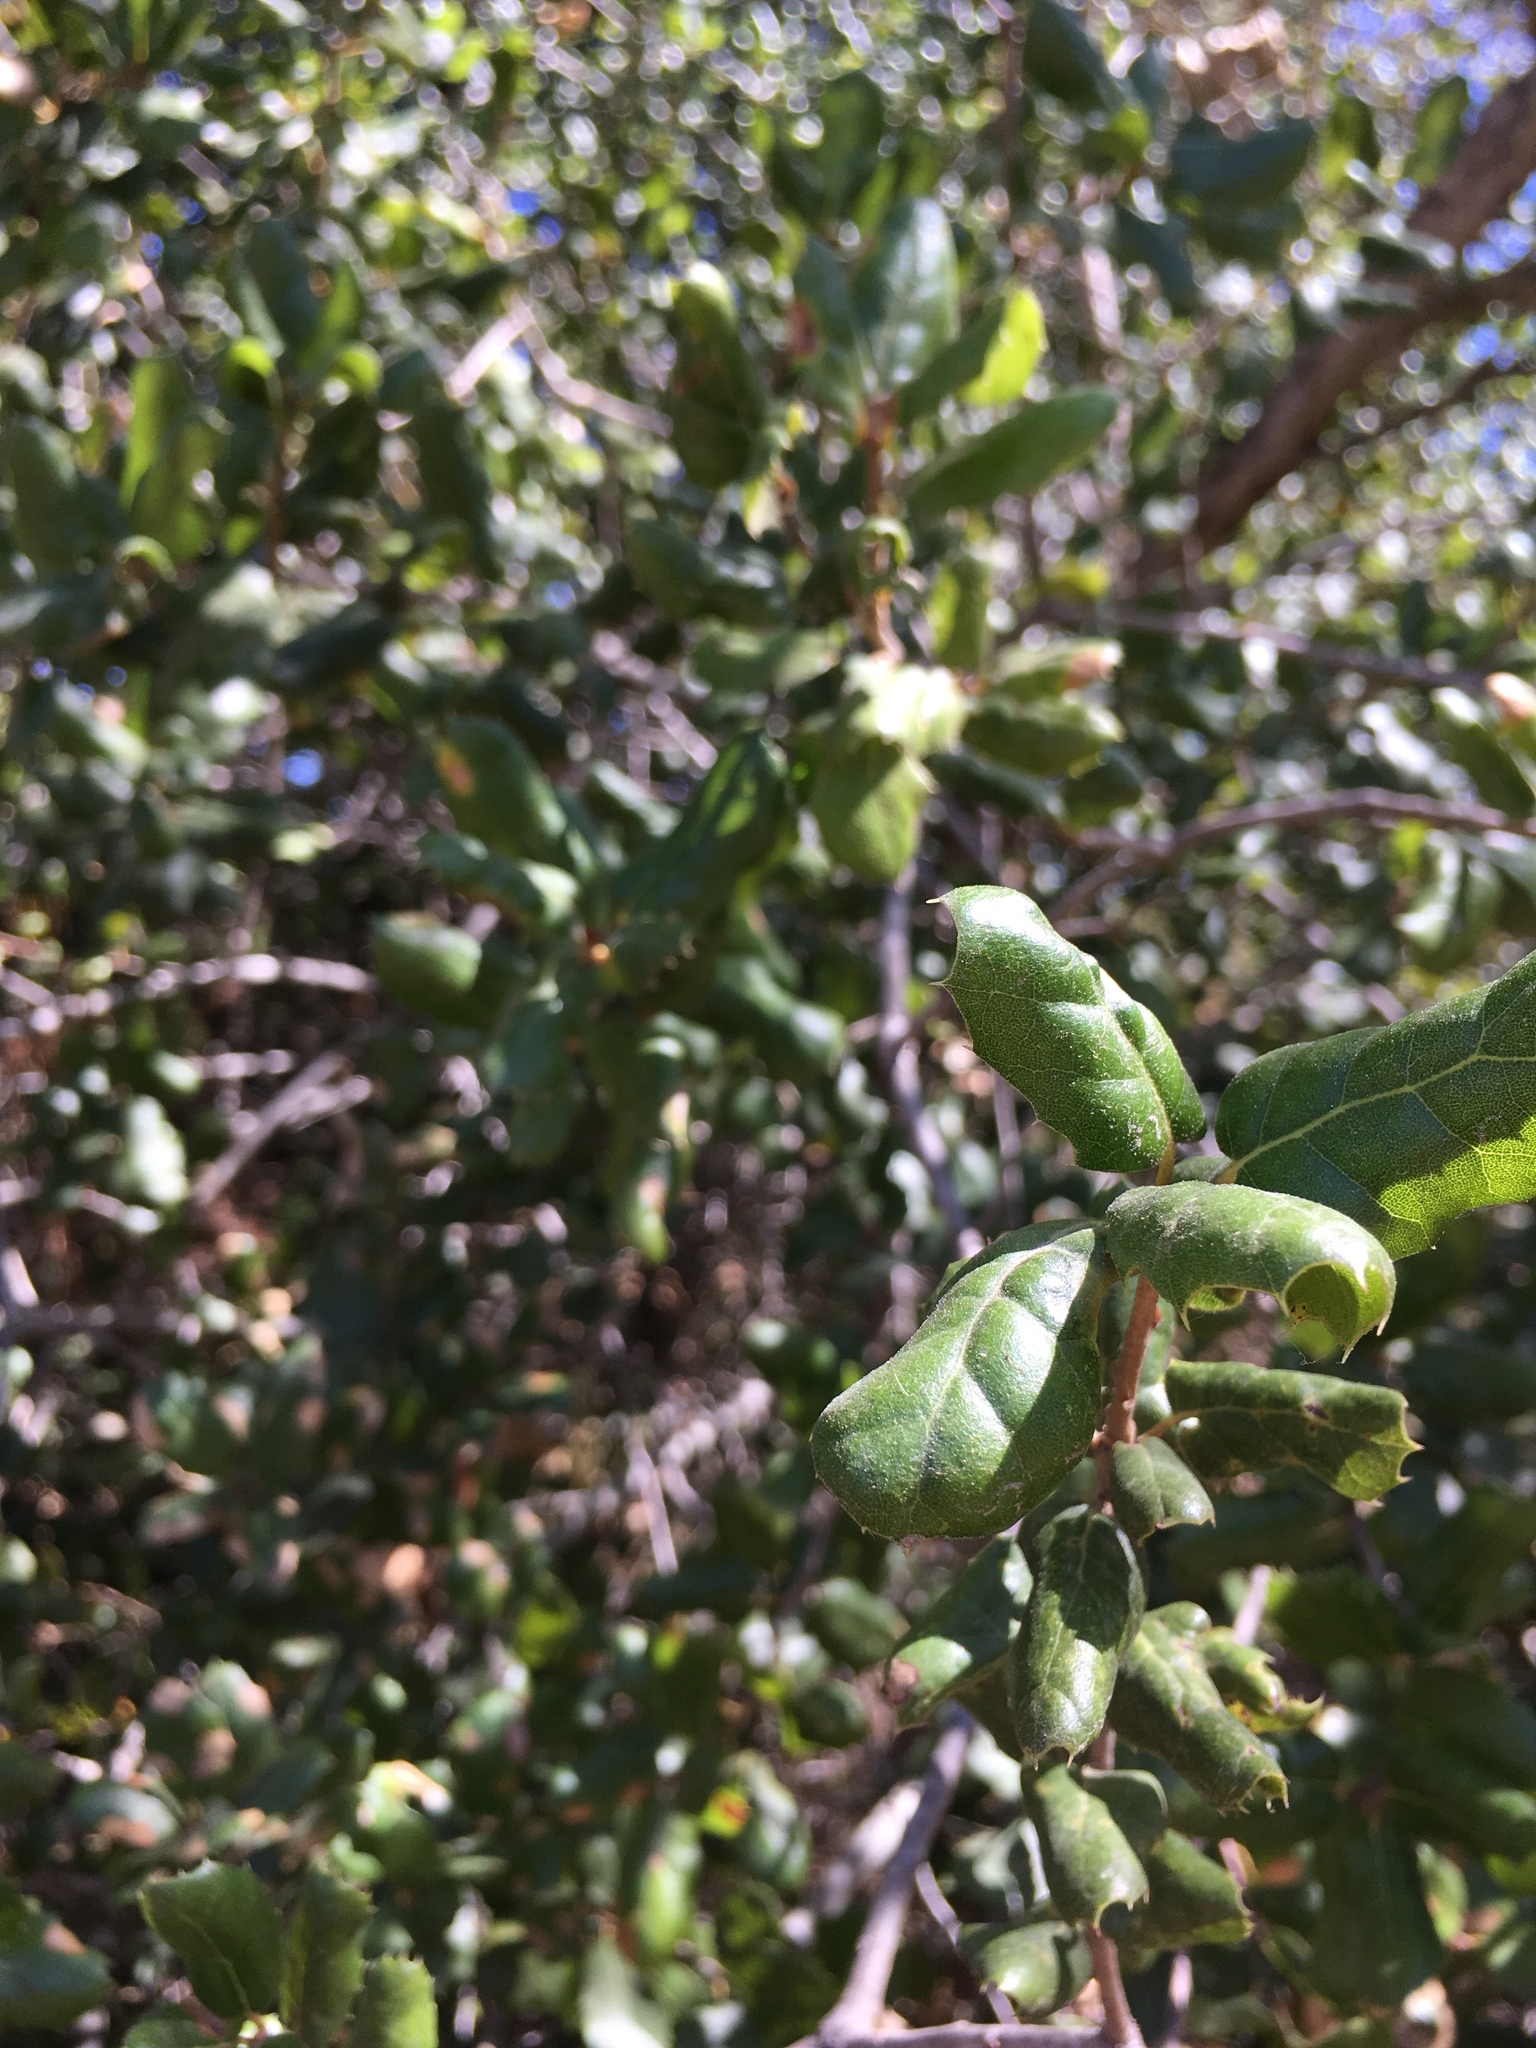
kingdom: Plantae
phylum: Tracheophyta
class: Magnoliopsida
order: Fagales
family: Fagaceae
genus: Quercus
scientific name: Quercus agrifolia
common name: California live oak
